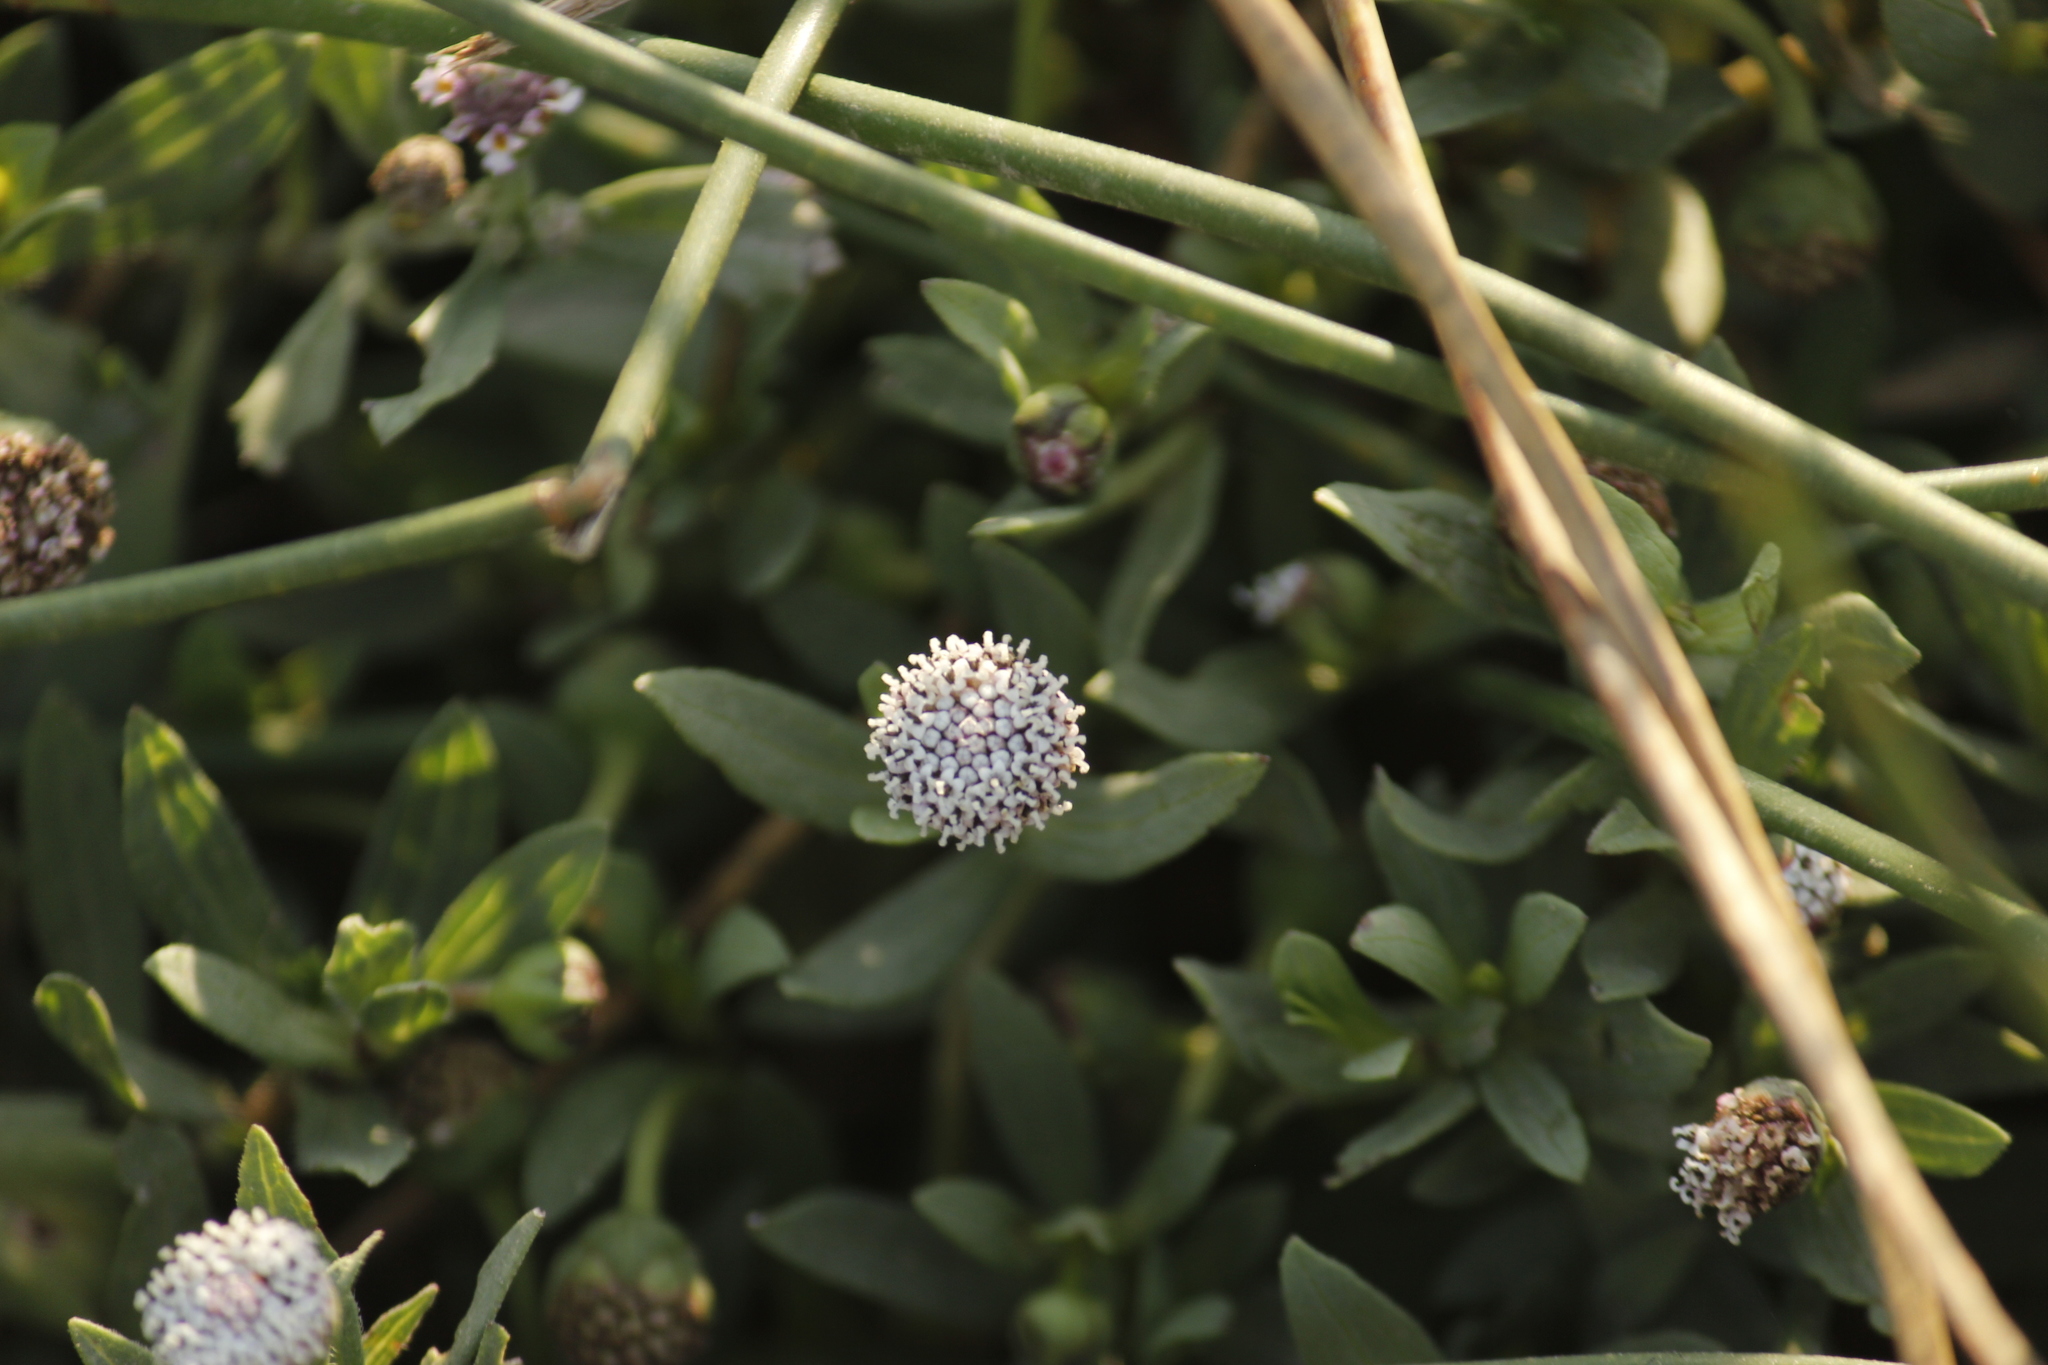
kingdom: Plantae
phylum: Tracheophyta
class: Magnoliopsida
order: Asterales
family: Asteraceae
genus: Spilanthes
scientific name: Spilanthes leiocarpa
